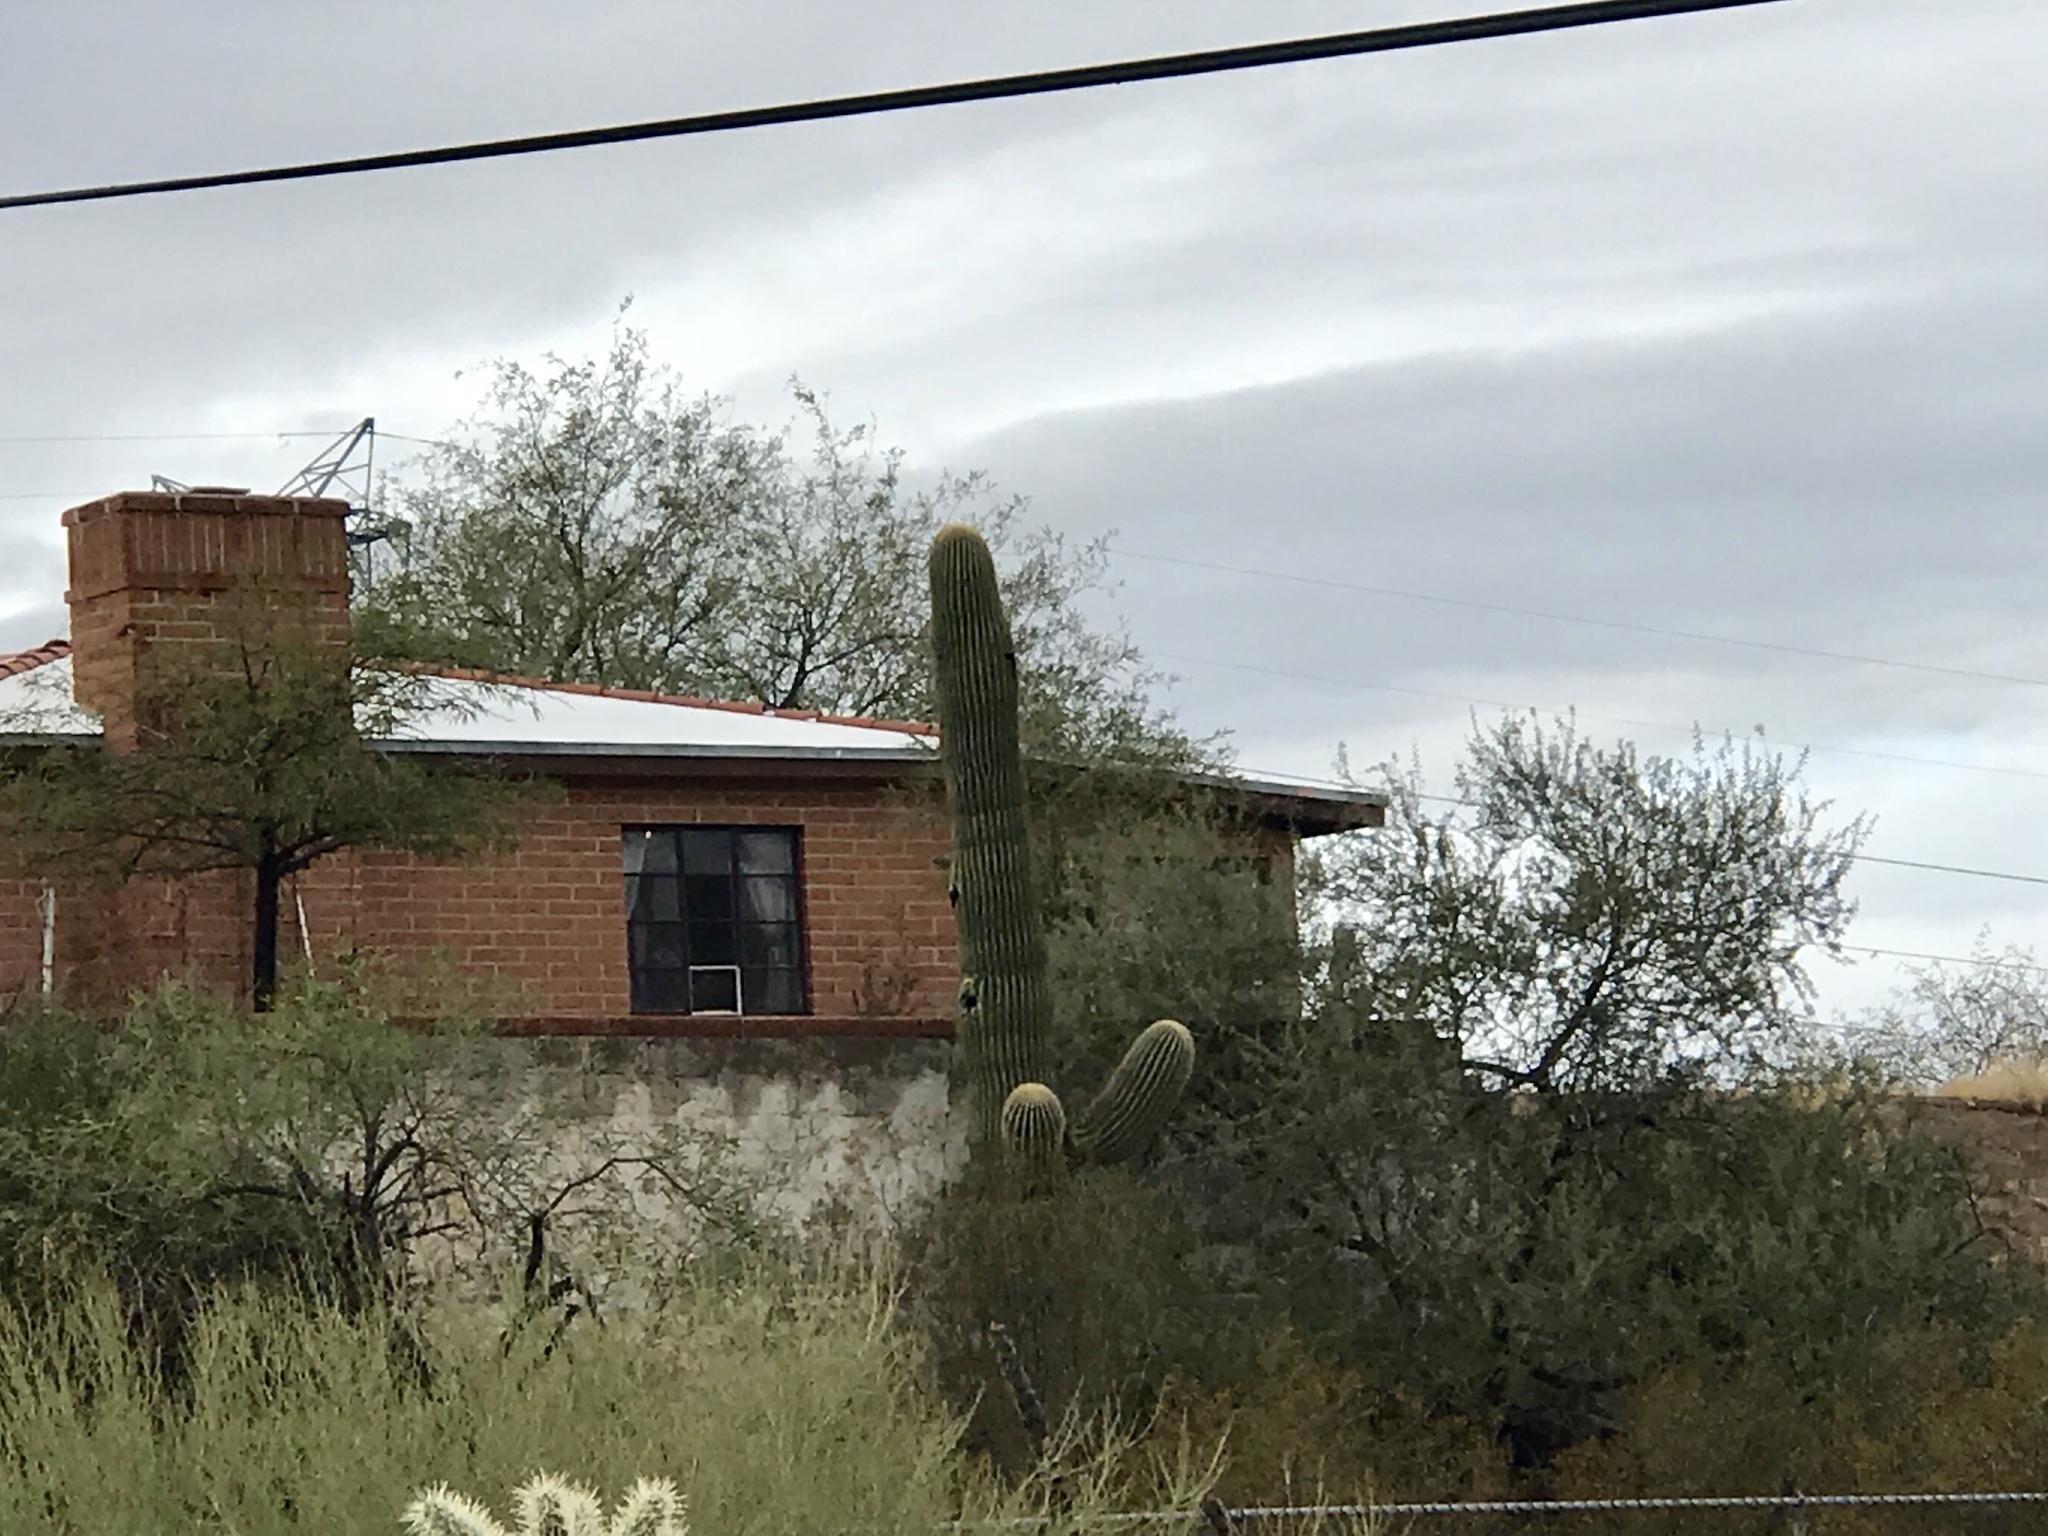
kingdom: Plantae
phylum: Tracheophyta
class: Magnoliopsida
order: Caryophyllales
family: Cactaceae
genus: Carnegiea
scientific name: Carnegiea gigantea
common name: Saguaro
